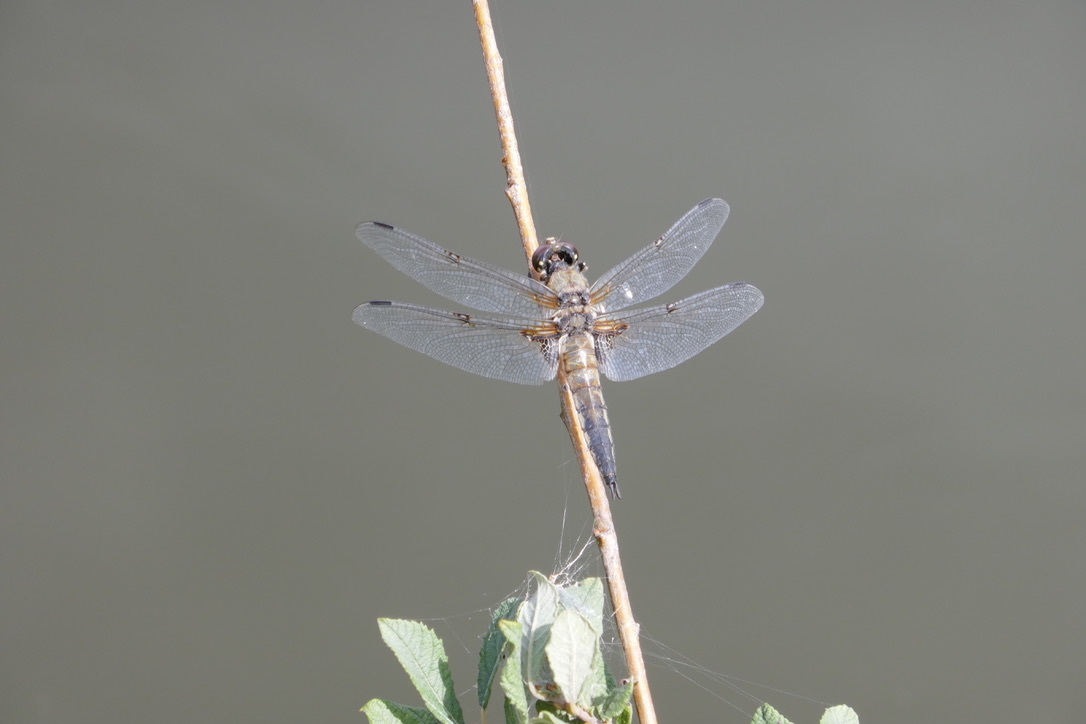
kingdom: Animalia
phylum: Arthropoda
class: Insecta
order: Odonata
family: Libellulidae
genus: Libellula
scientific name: Libellula quadrimaculata
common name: Four-spotted chaser
